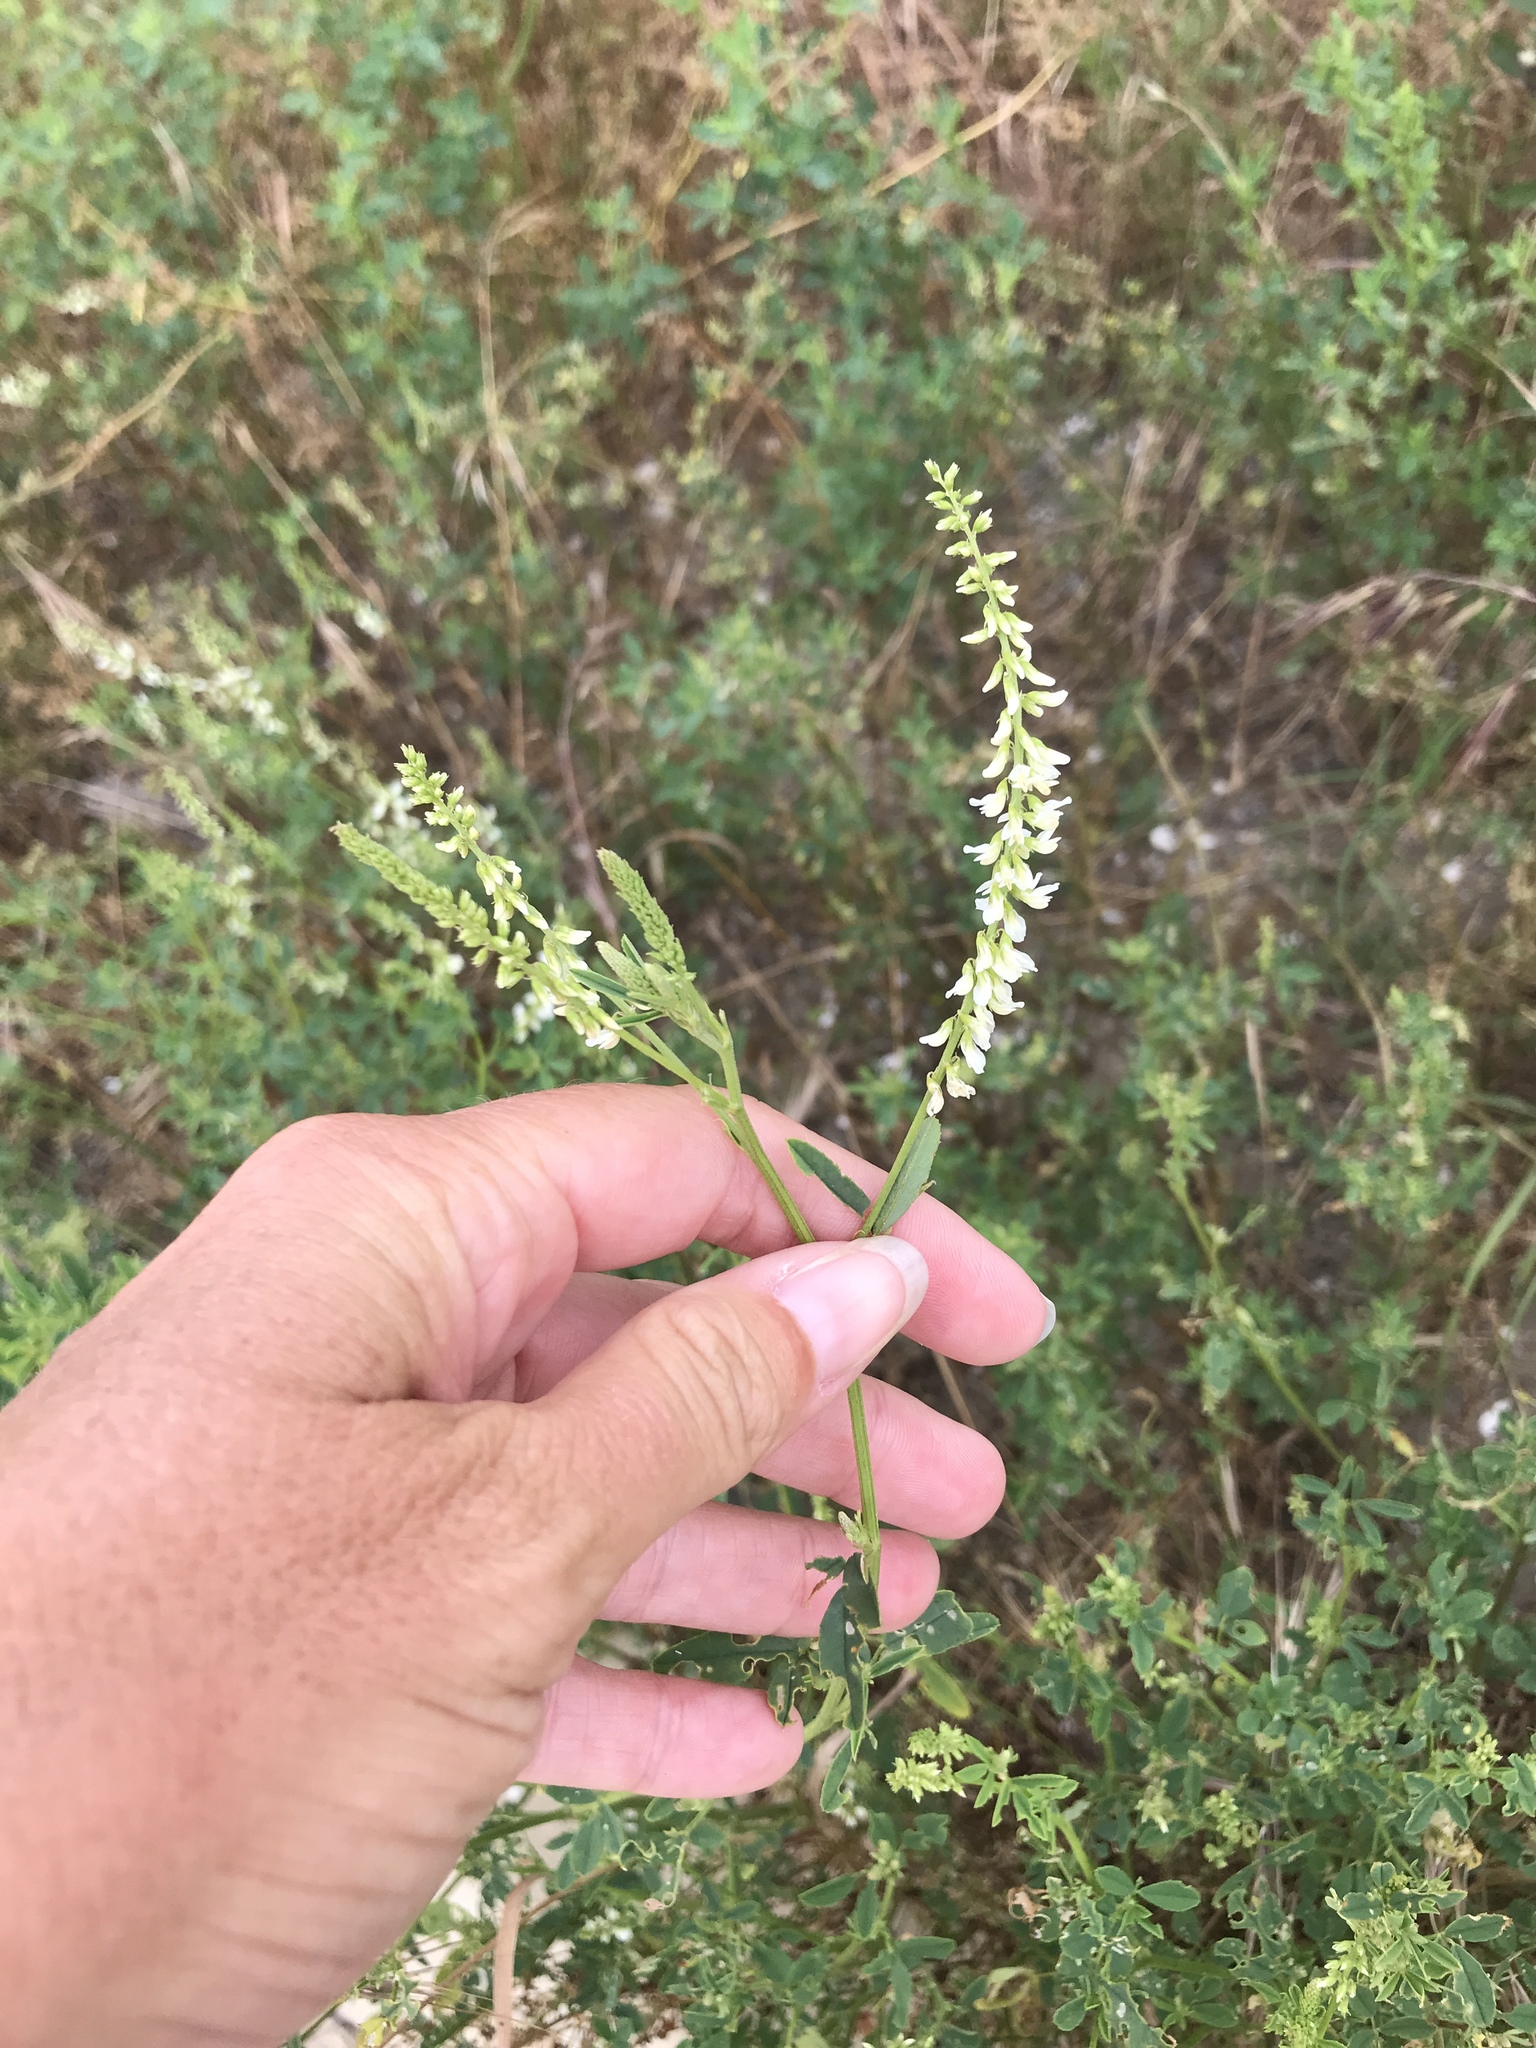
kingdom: Plantae
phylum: Tracheophyta
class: Magnoliopsida
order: Fabales
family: Fabaceae
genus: Melilotus
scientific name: Melilotus albus
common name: White melilot
